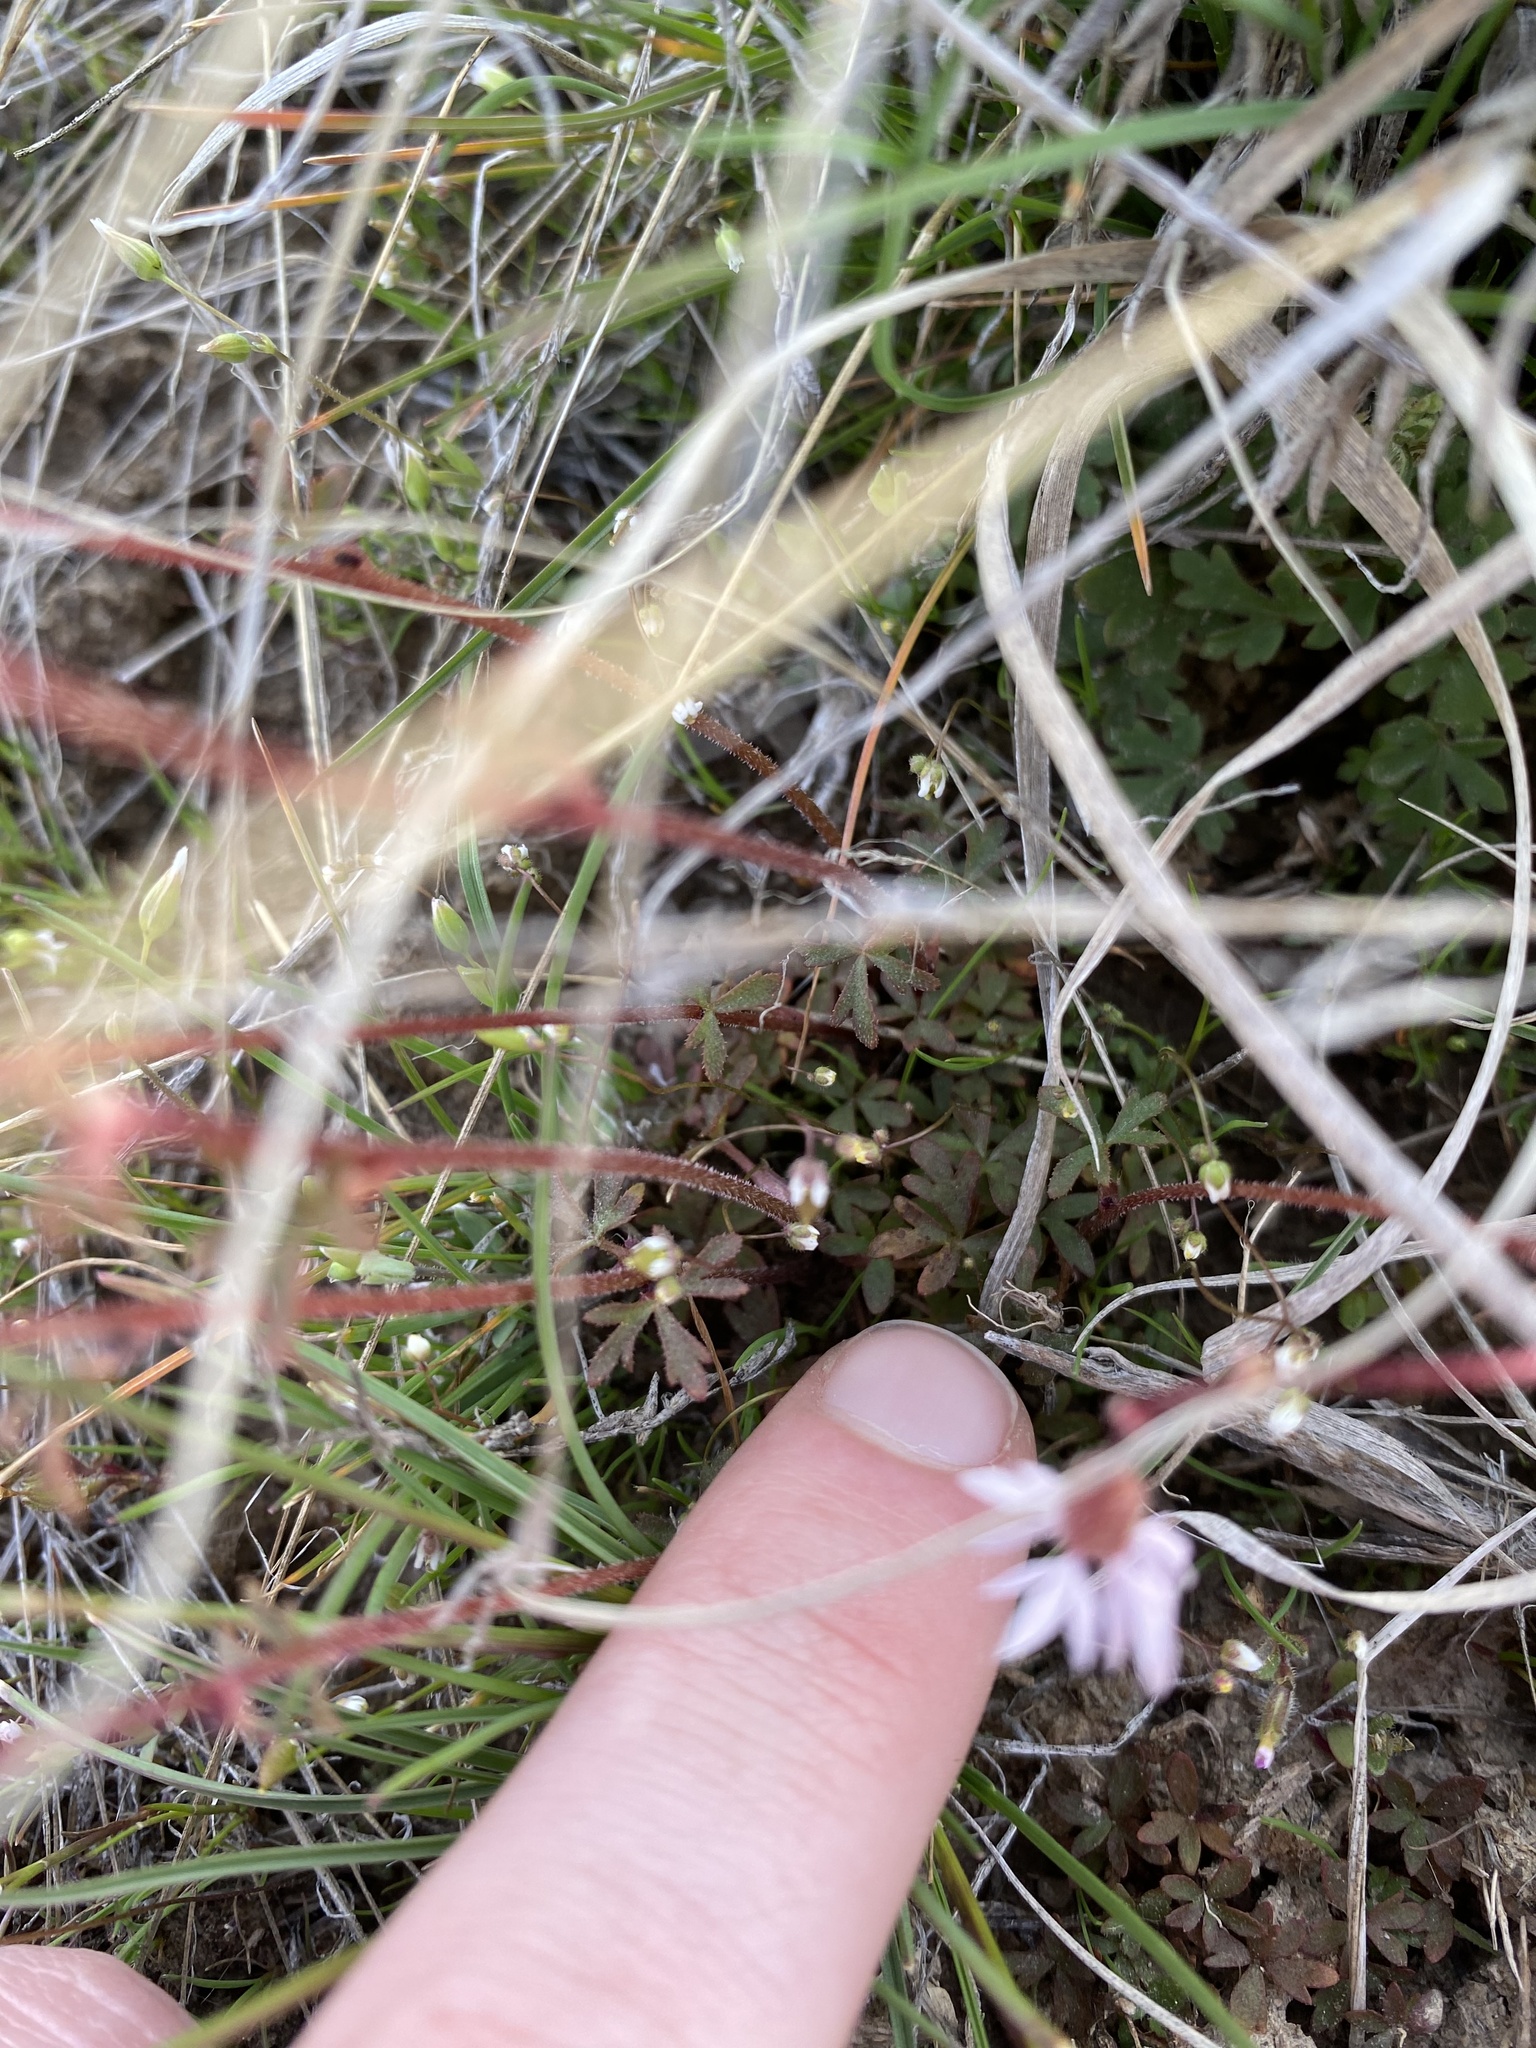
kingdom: Plantae
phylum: Tracheophyta
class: Magnoliopsida
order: Saxifragales
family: Saxifragaceae
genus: Lithophragma
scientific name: Lithophragma glabrum
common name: Bulbous prairie-star
